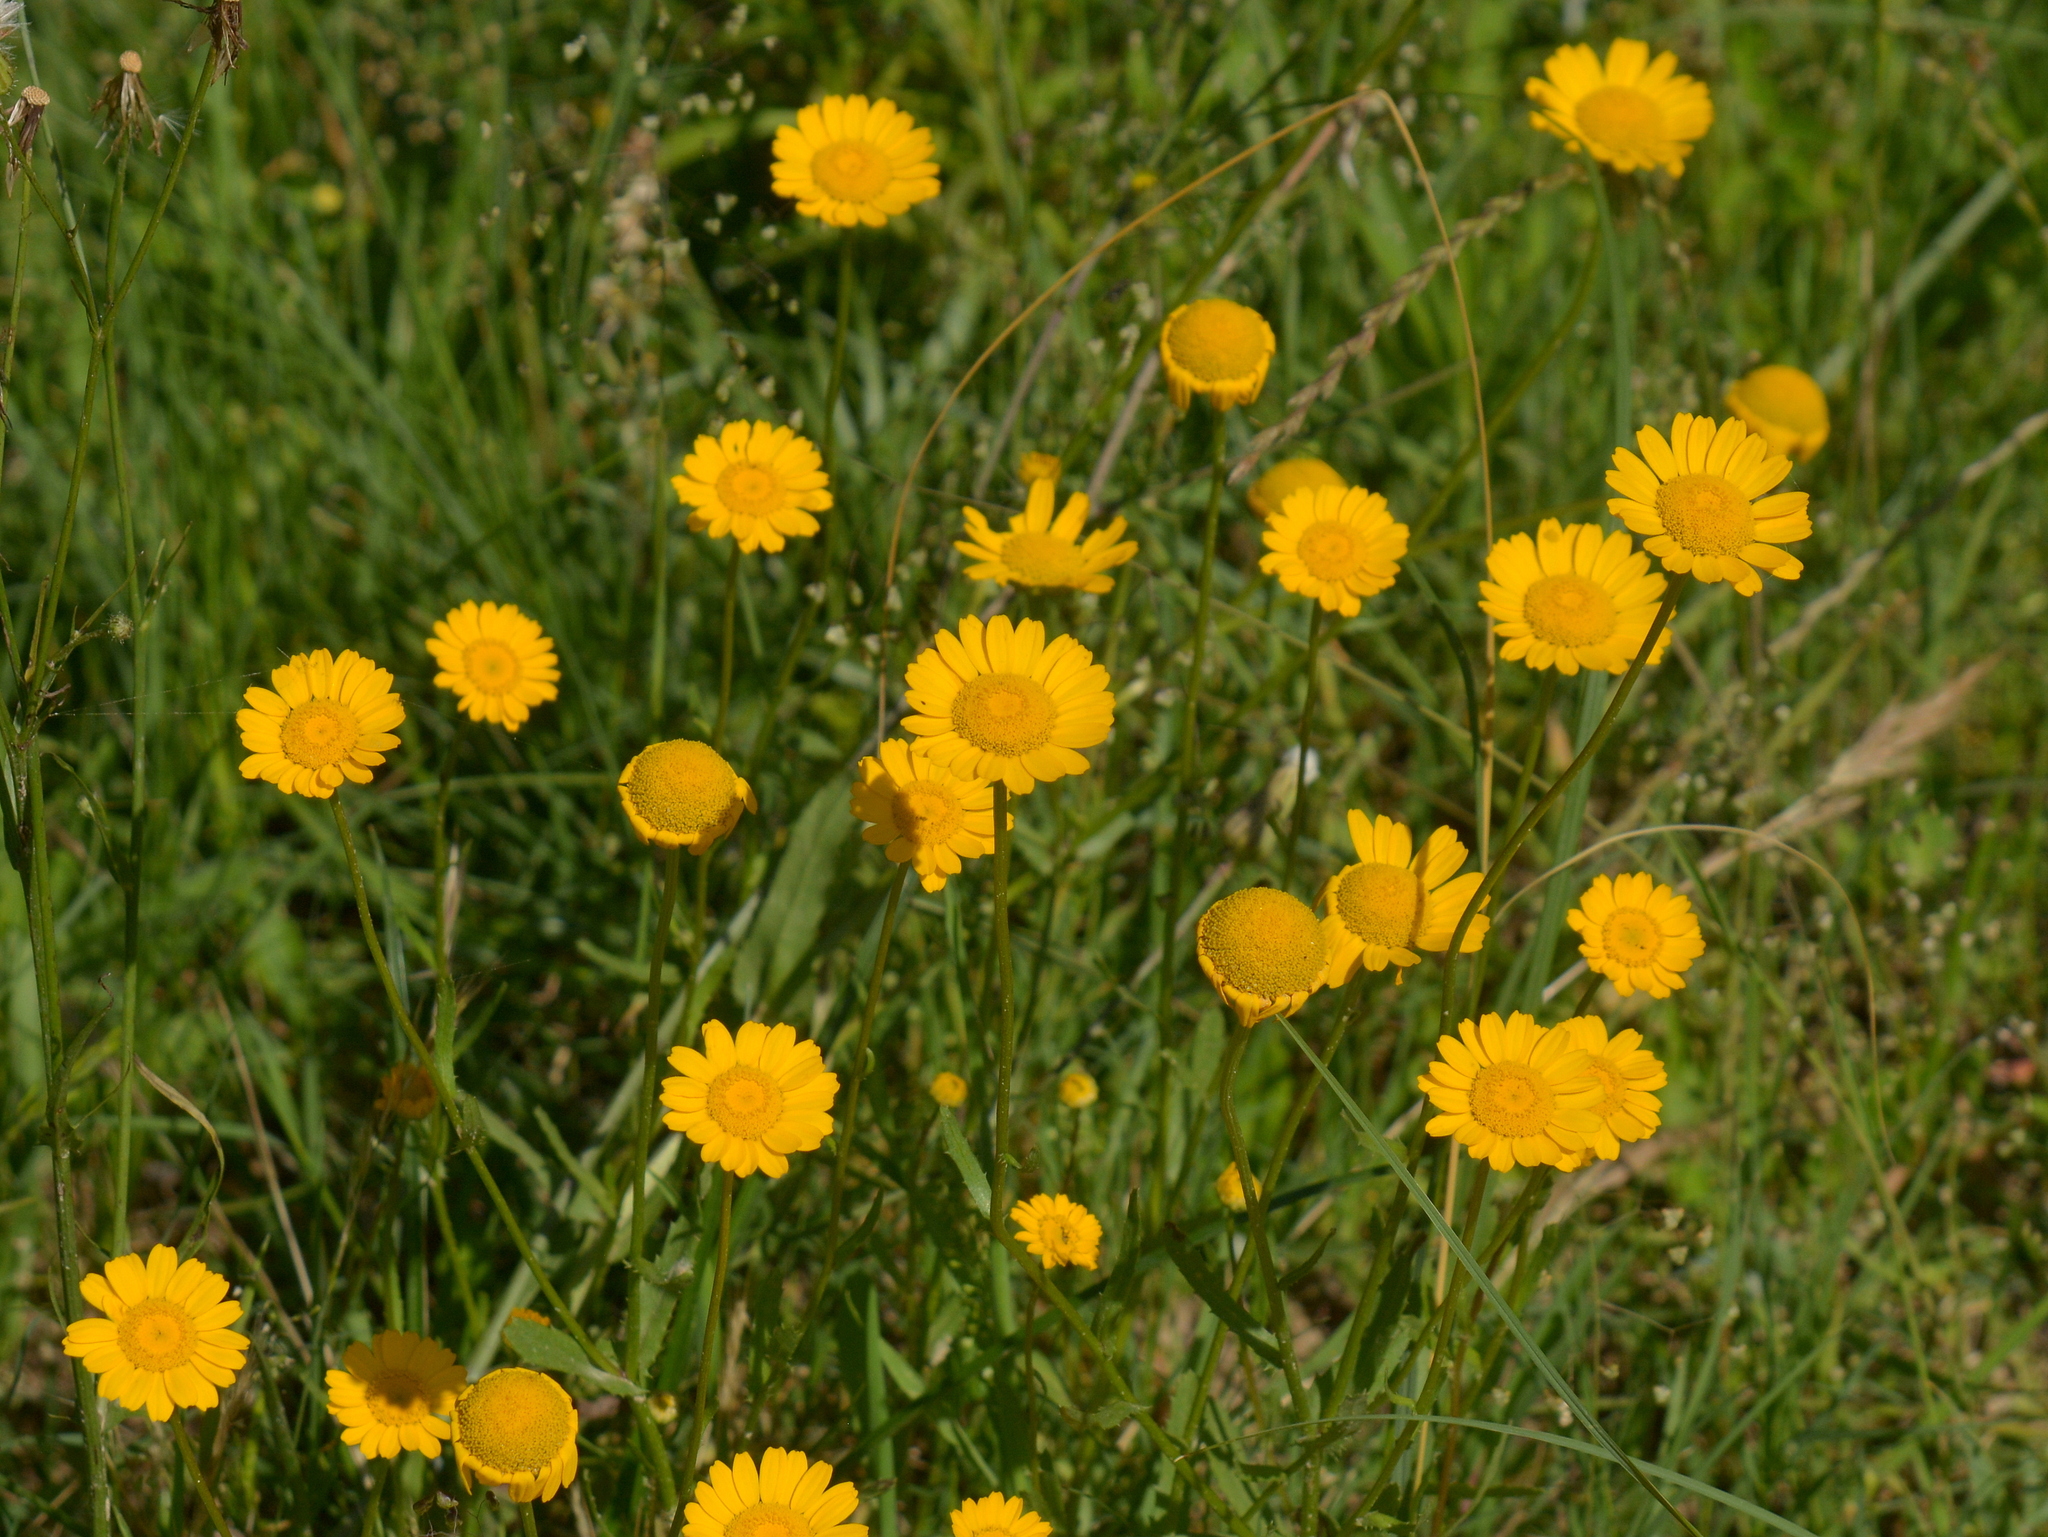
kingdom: Plantae
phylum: Tracheophyta
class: Magnoliopsida
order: Asterales
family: Asteraceae
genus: Coleostephus
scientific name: Coleostephus myconis
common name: Mediterranean marigold
